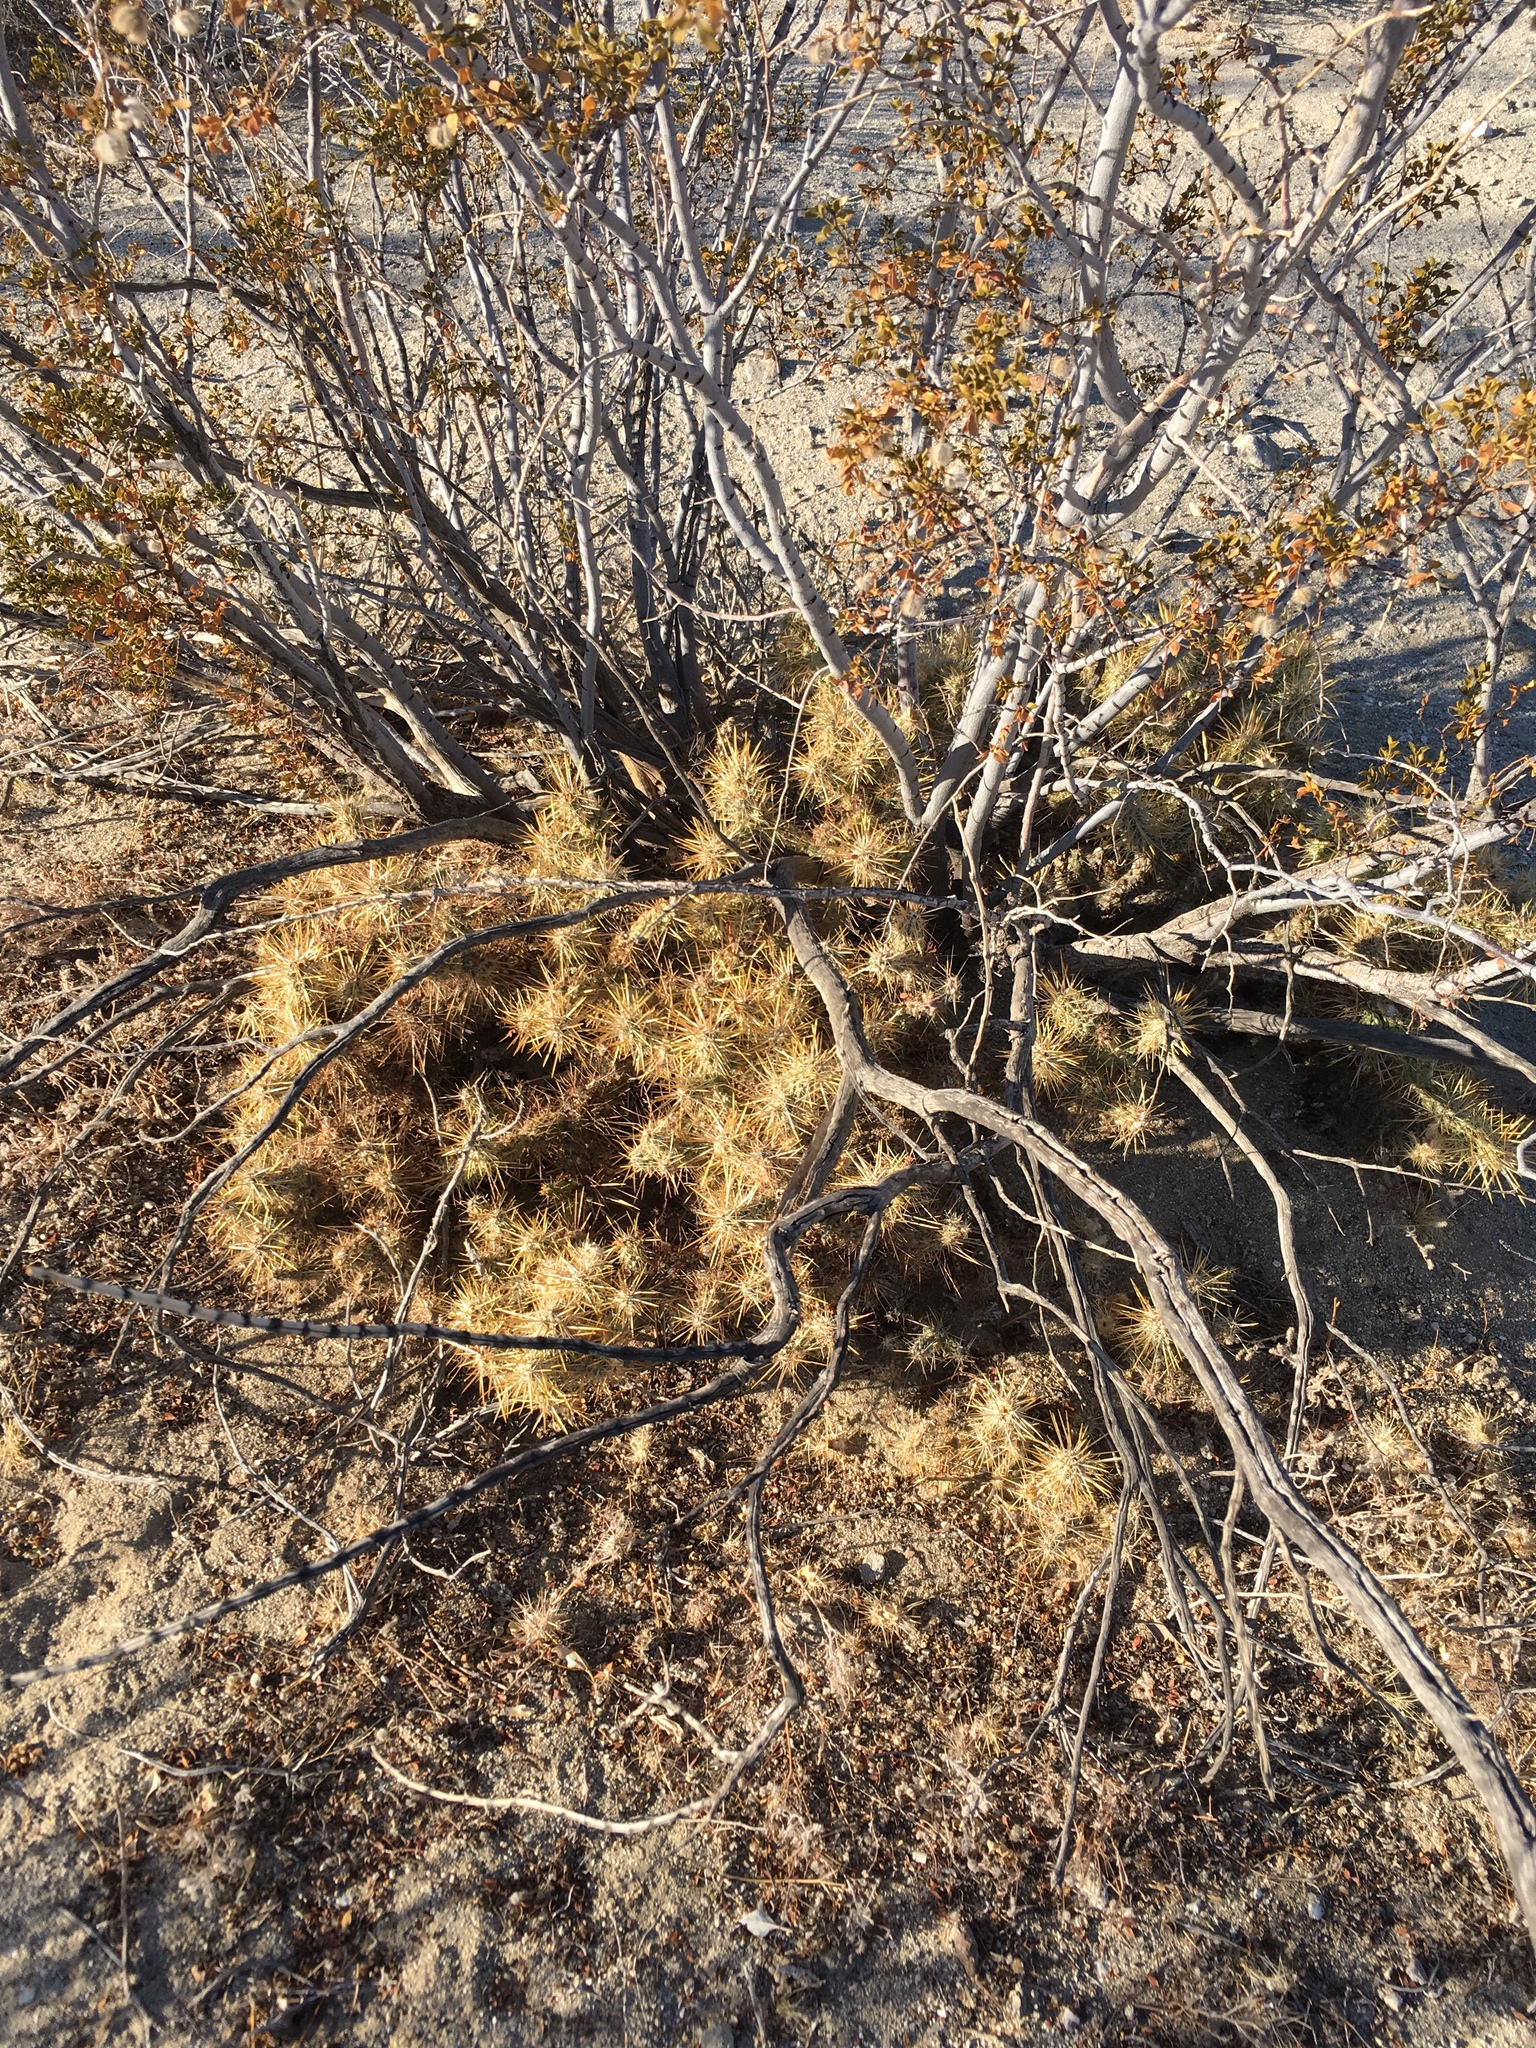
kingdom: Plantae
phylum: Tracheophyta
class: Magnoliopsida
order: Zygophyllales
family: Zygophyllaceae
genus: Larrea
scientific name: Larrea tridentata
